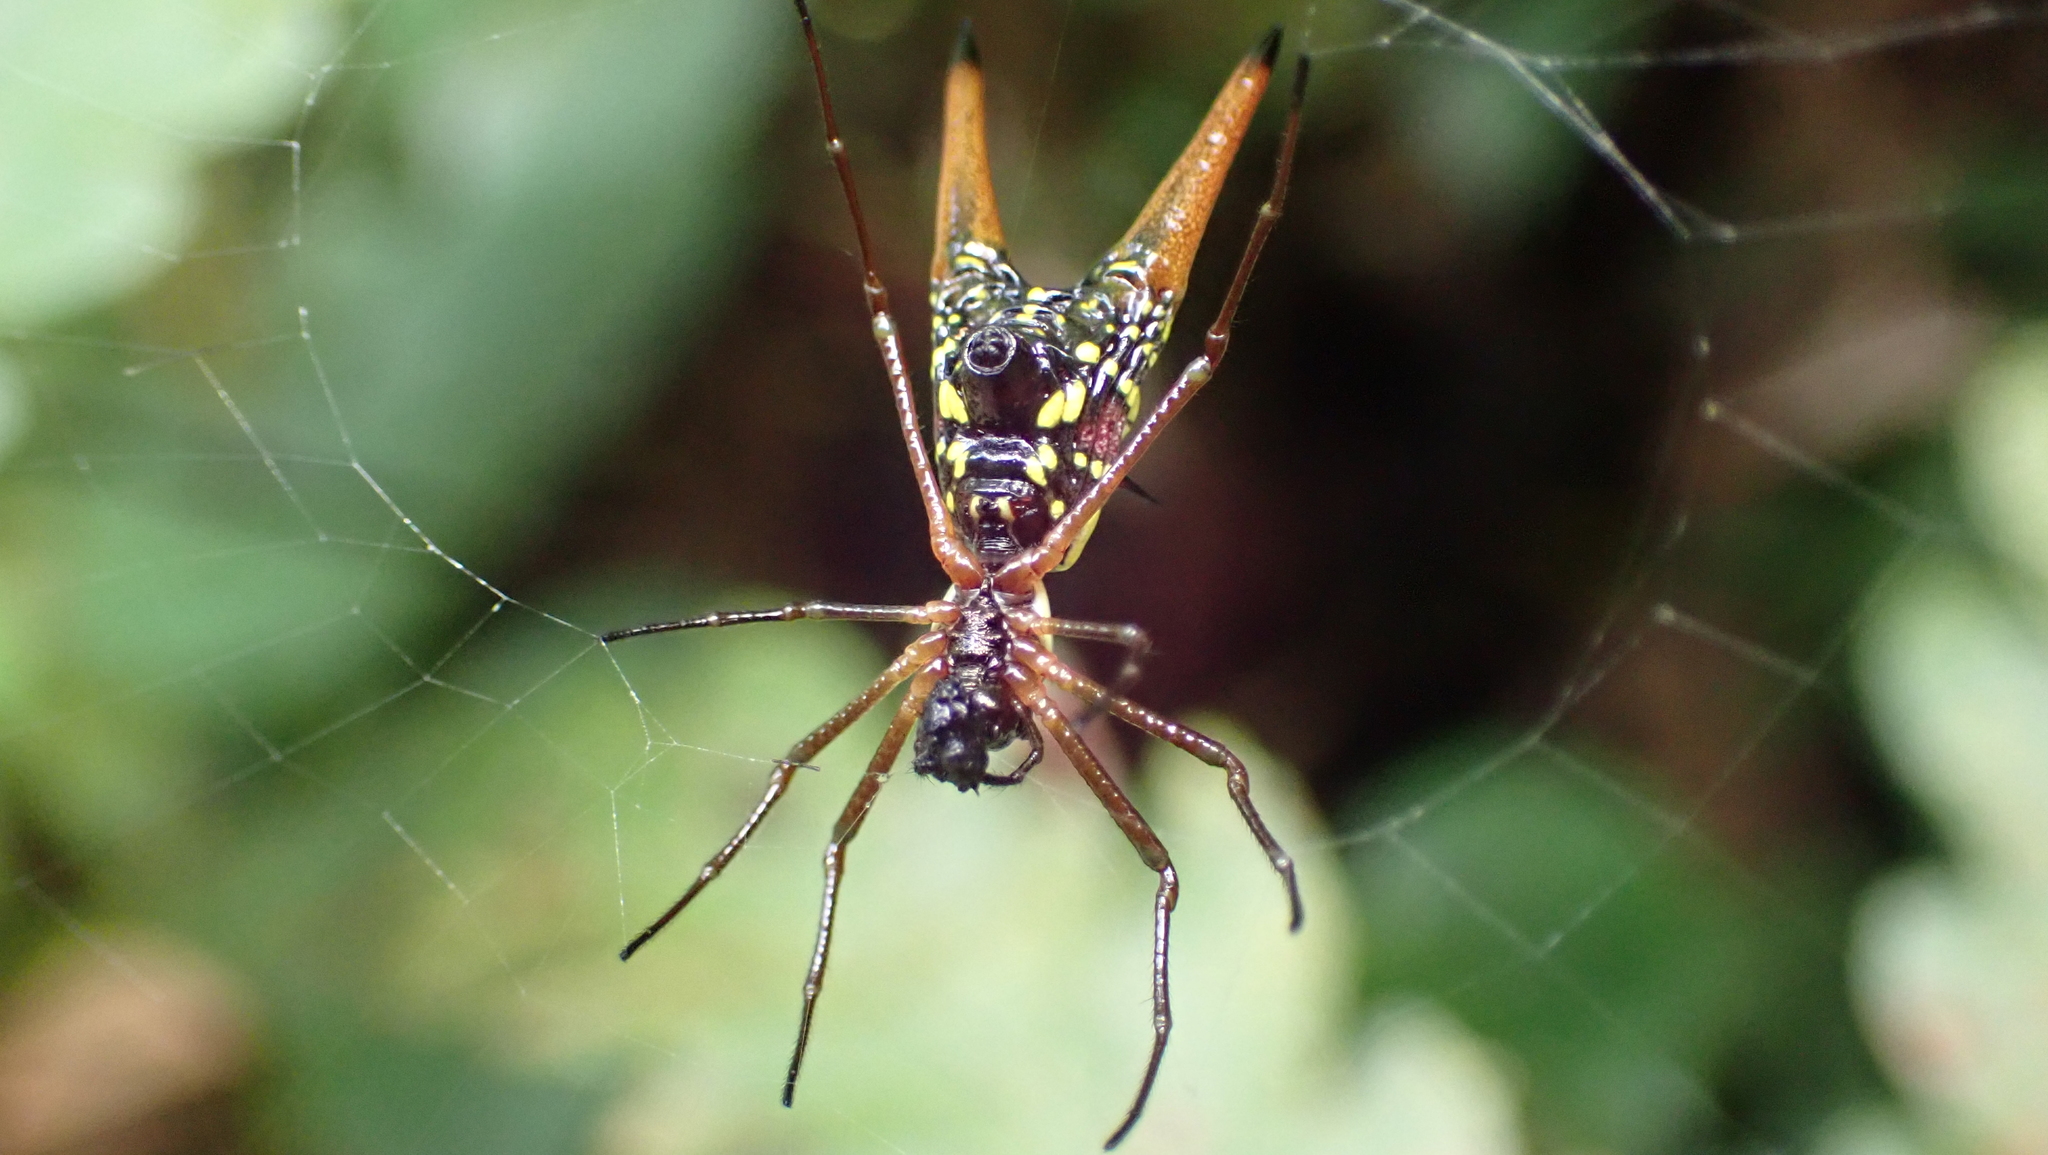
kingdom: Animalia
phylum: Arthropoda
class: Arachnida
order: Araneae
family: Araneidae
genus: Micrathena
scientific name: Micrathena brevipes
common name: Orb weavers
